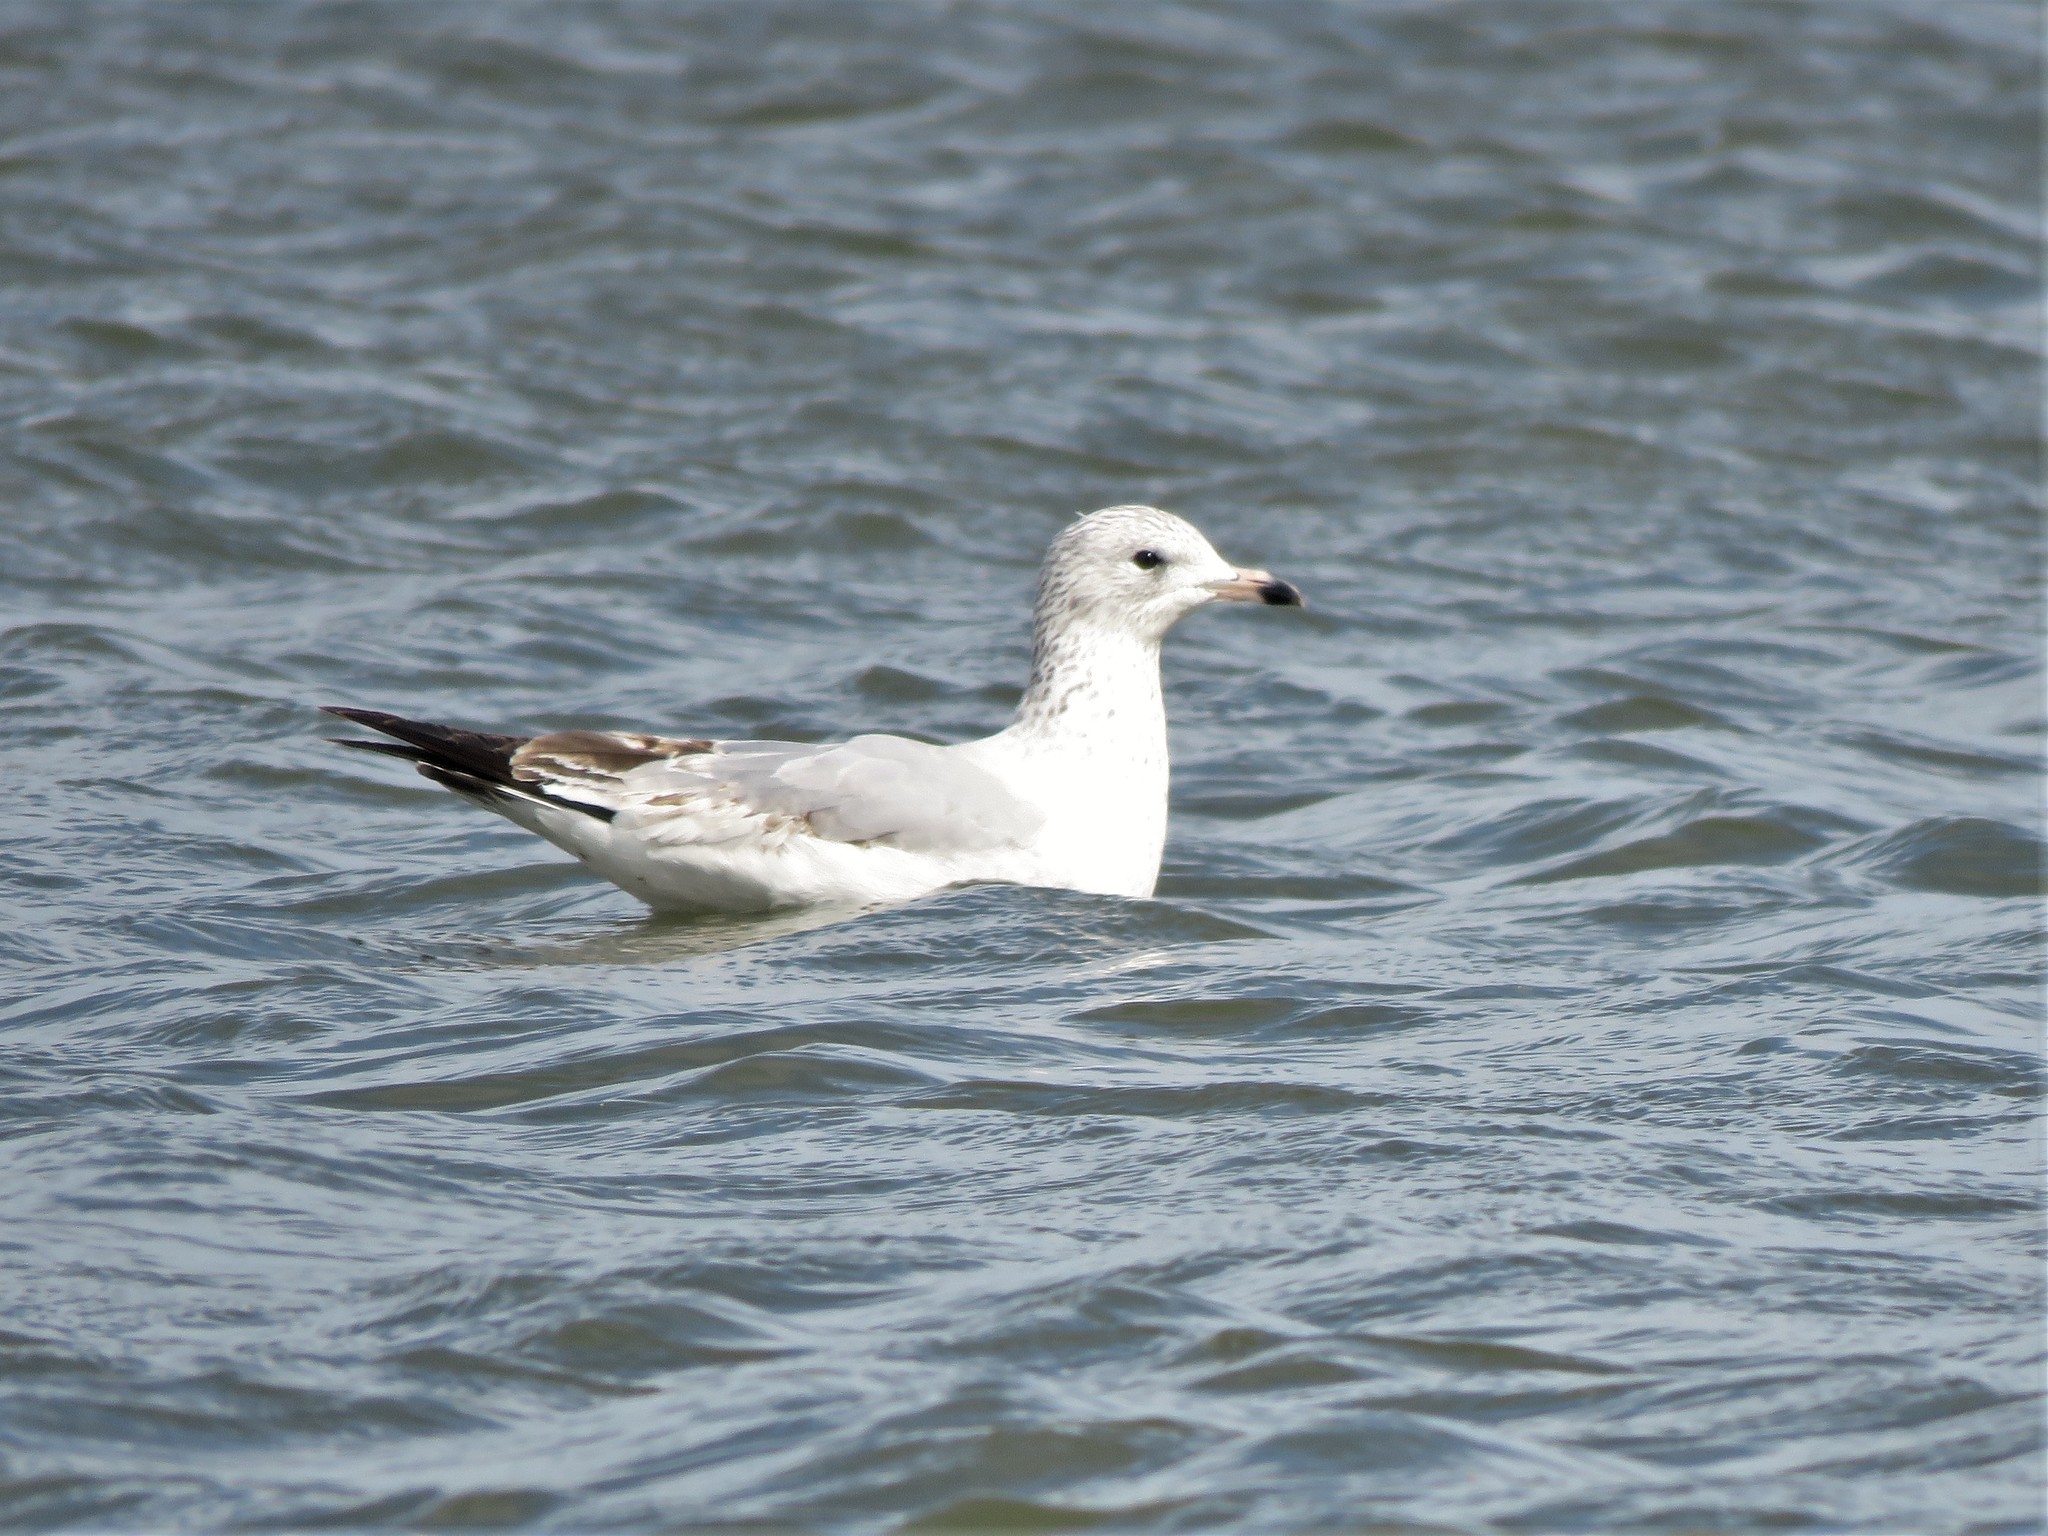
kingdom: Animalia
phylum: Chordata
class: Aves
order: Charadriiformes
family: Laridae
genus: Larus
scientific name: Larus delawarensis
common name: Ring-billed gull
